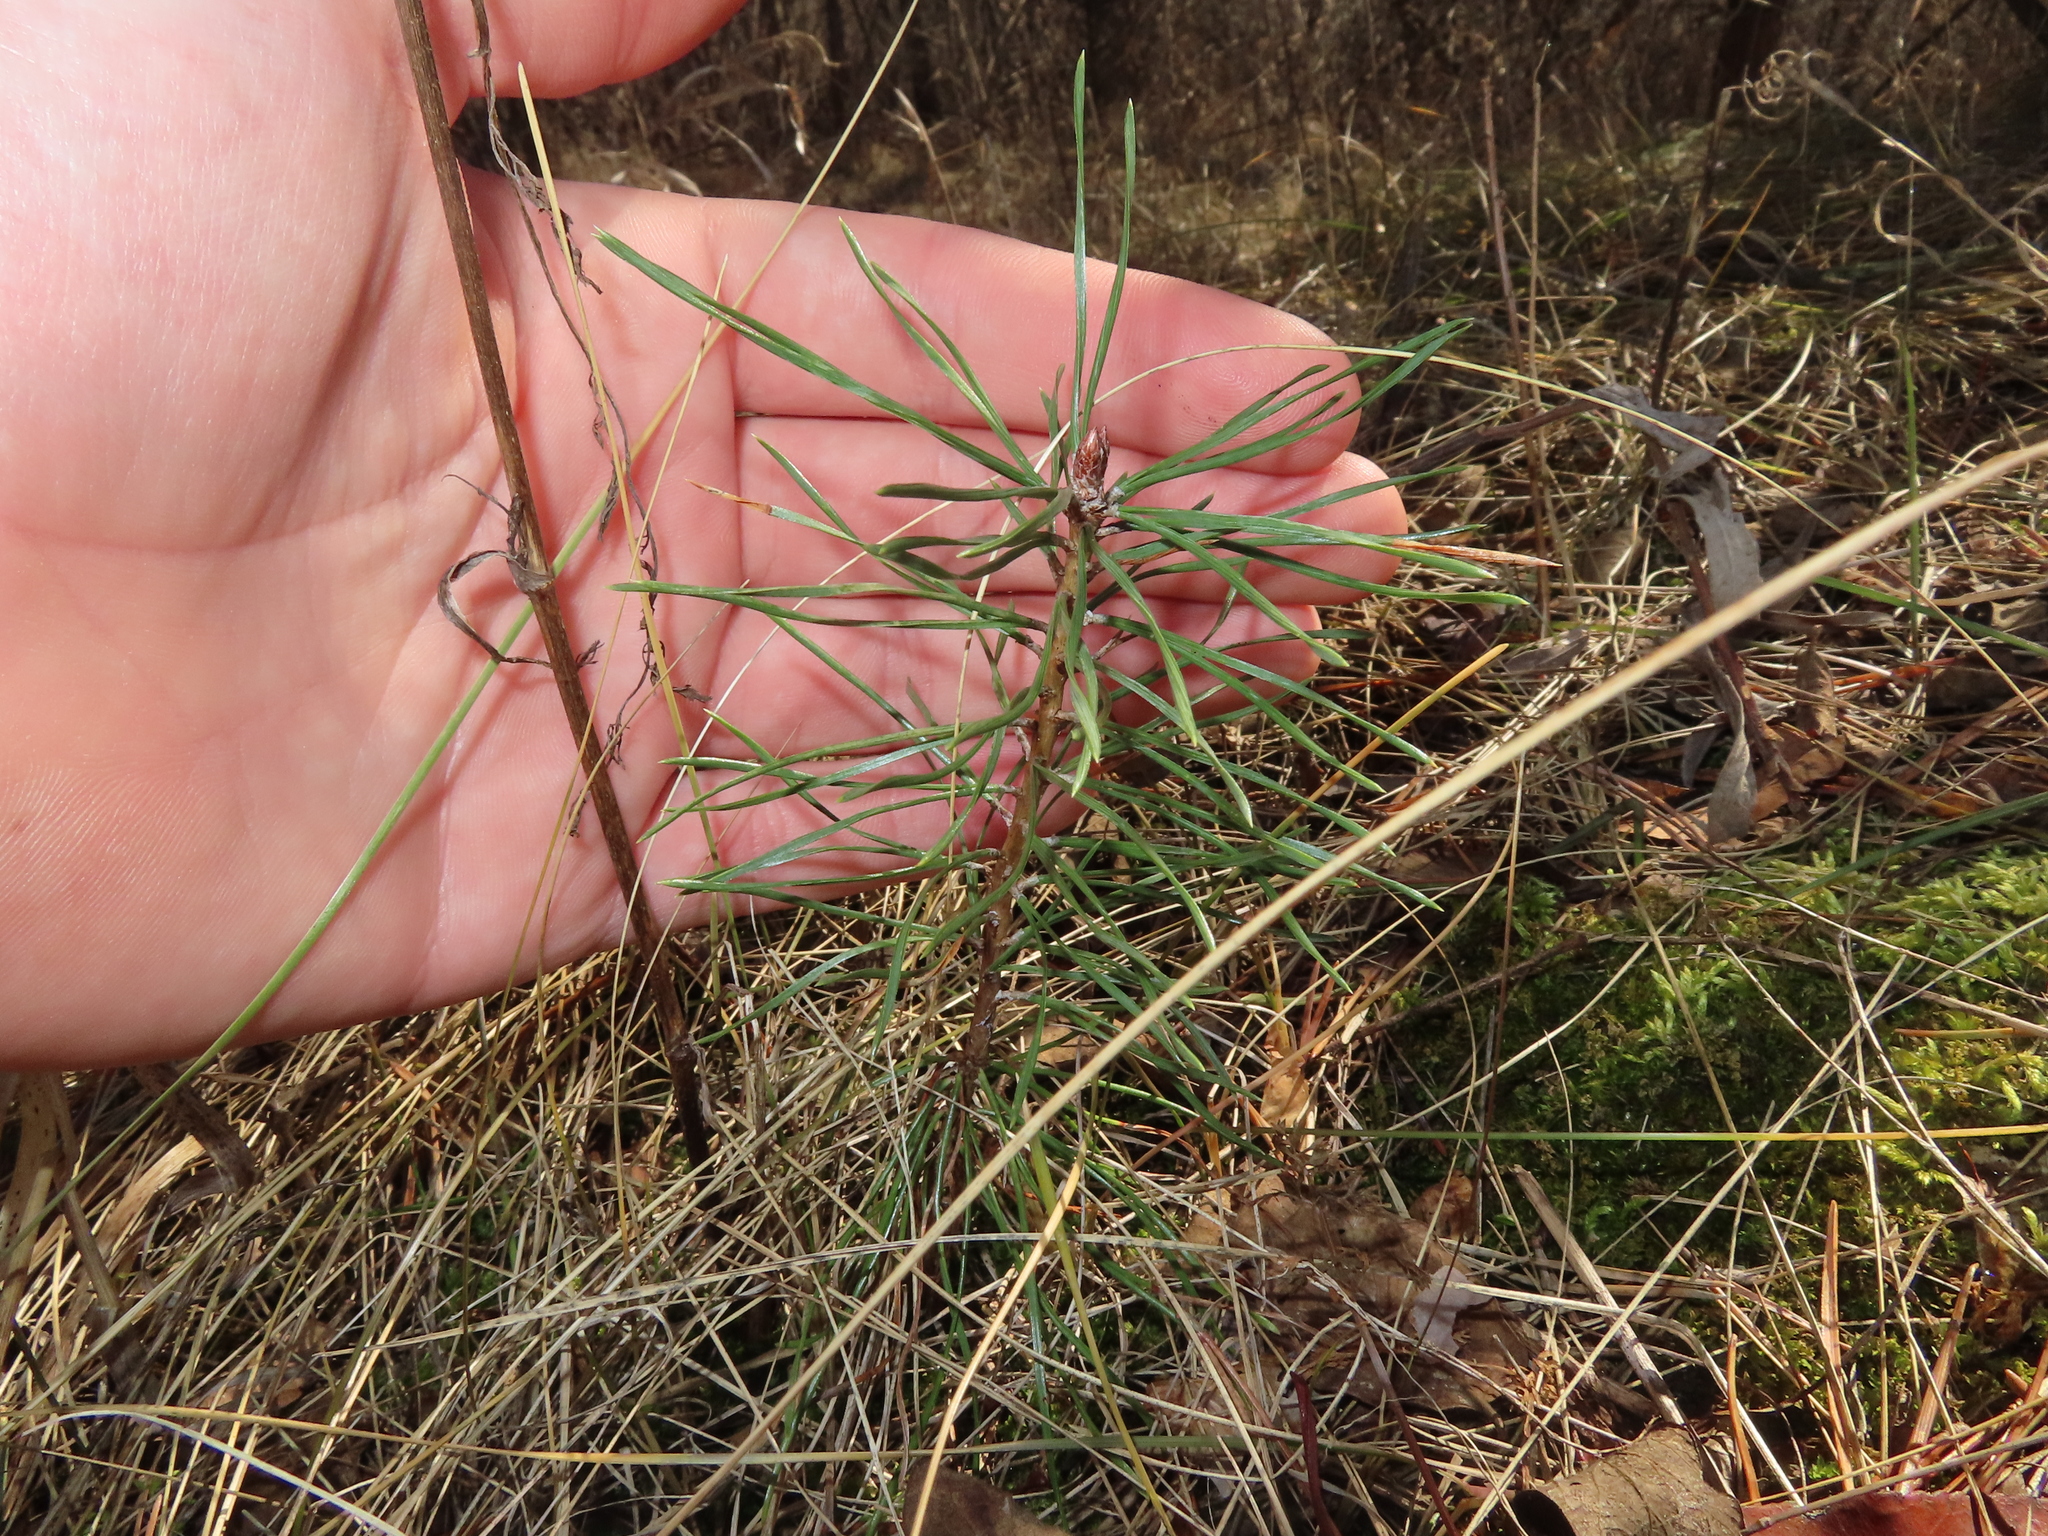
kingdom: Plantae
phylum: Tracheophyta
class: Pinopsida
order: Pinales
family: Pinaceae
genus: Pinus
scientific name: Pinus resinosa
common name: Norway pine
